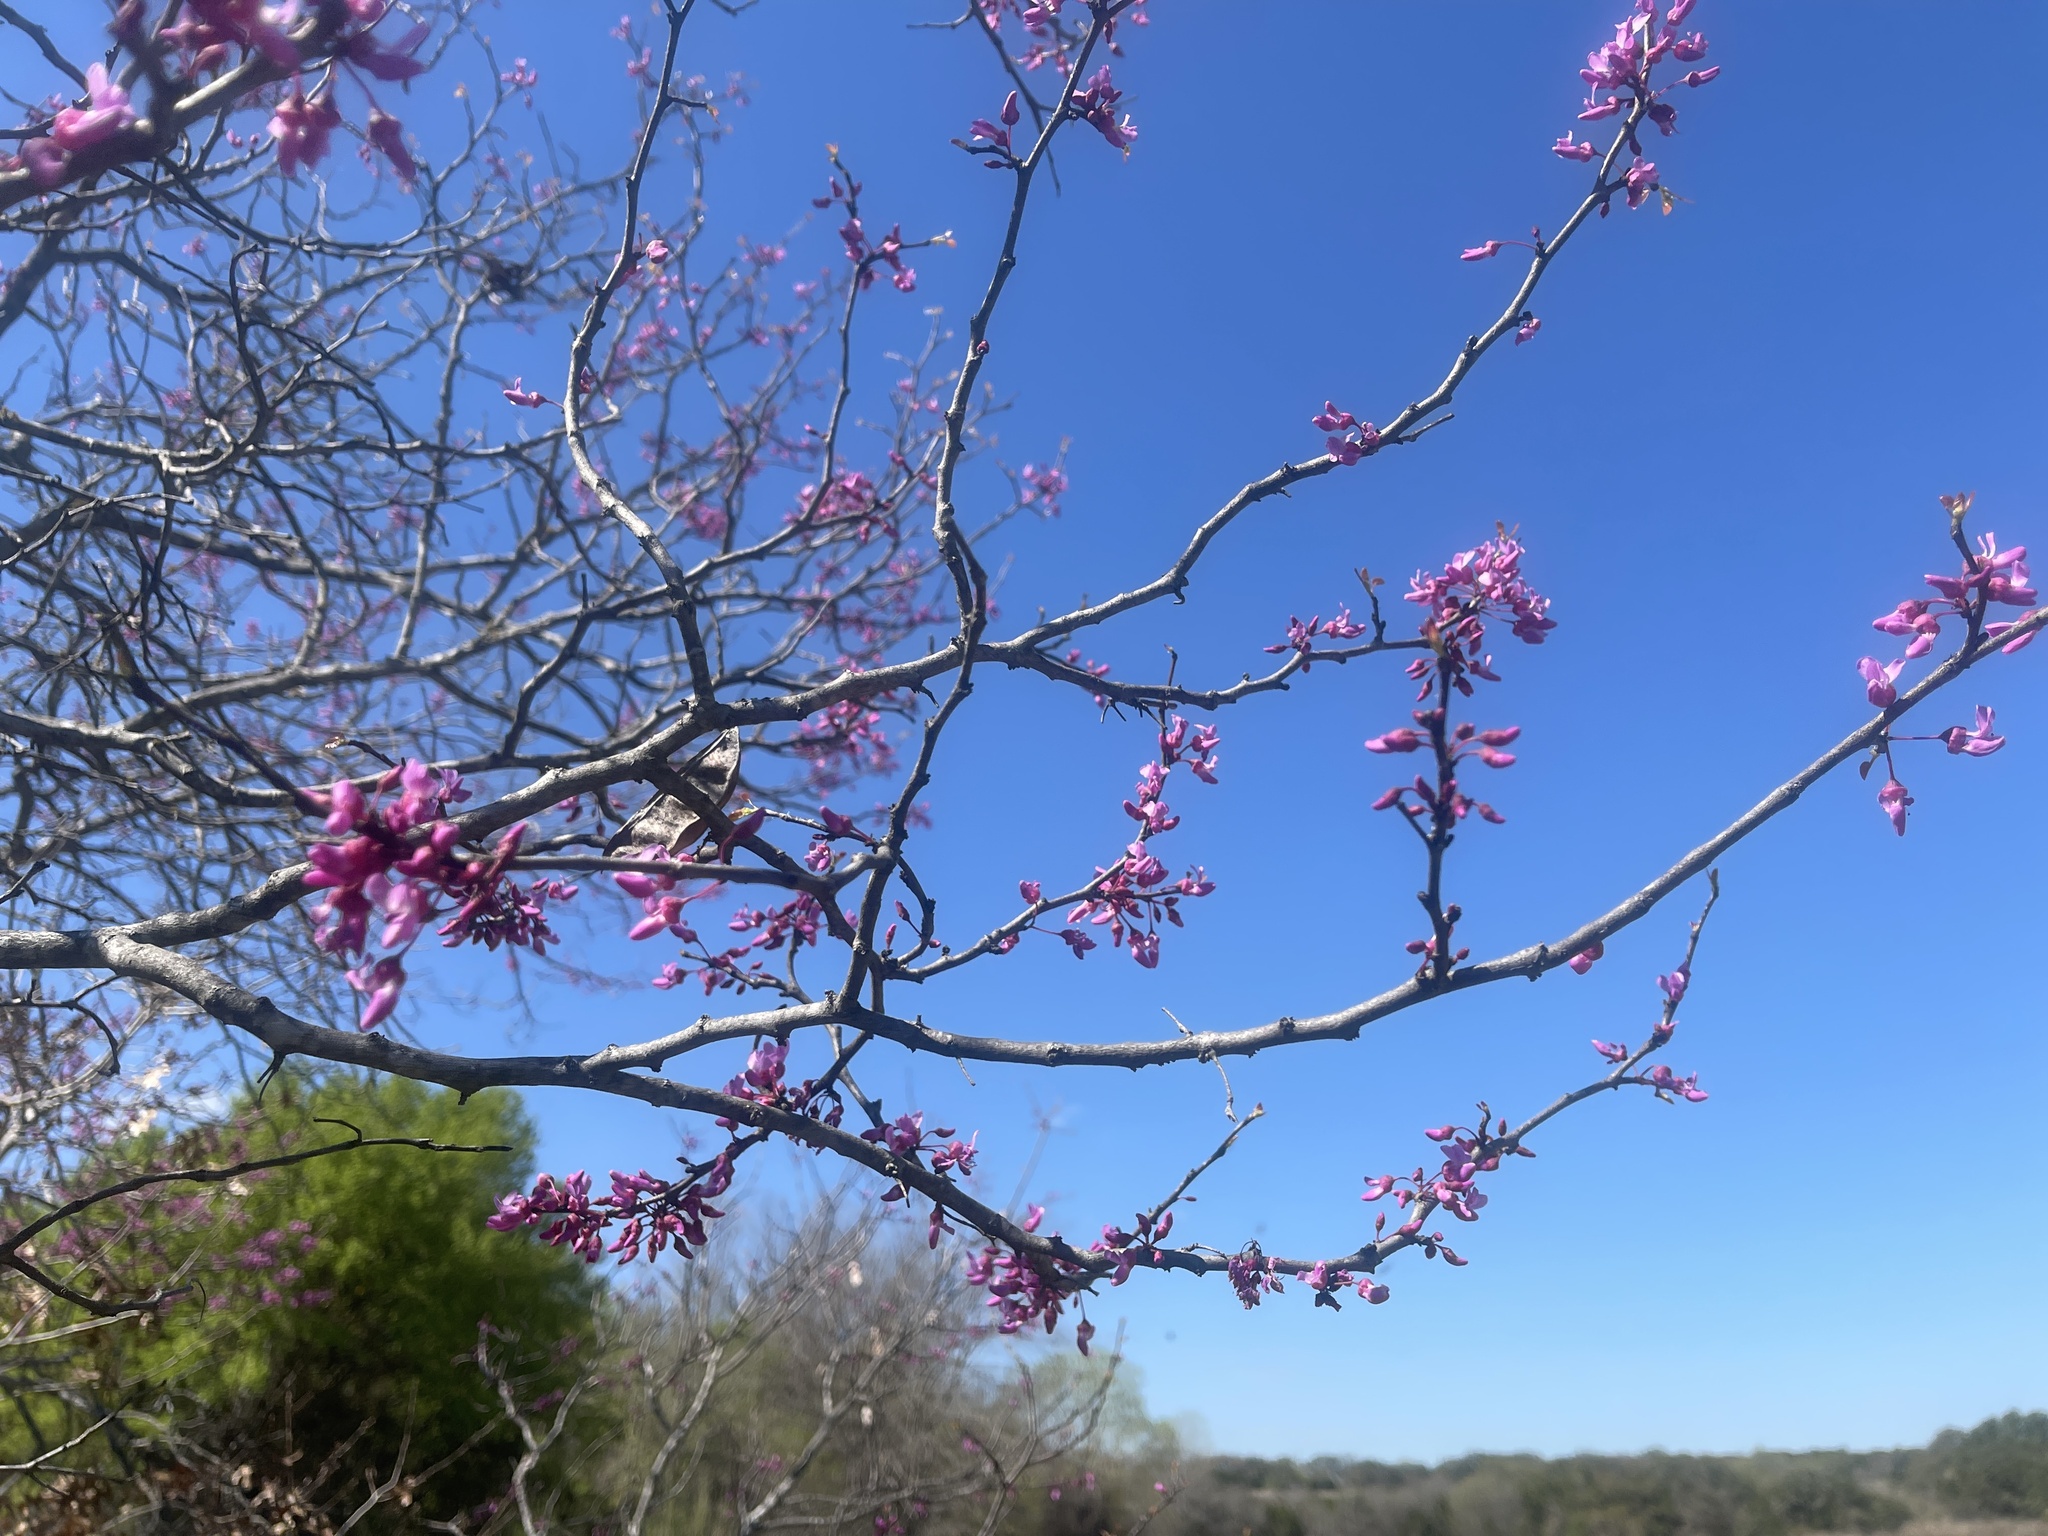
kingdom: Plantae
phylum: Tracheophyta
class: Magnoliopsida
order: Fabales
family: Fabaceae
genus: Cercis
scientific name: Cercis canadensis
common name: Eastern redbud
